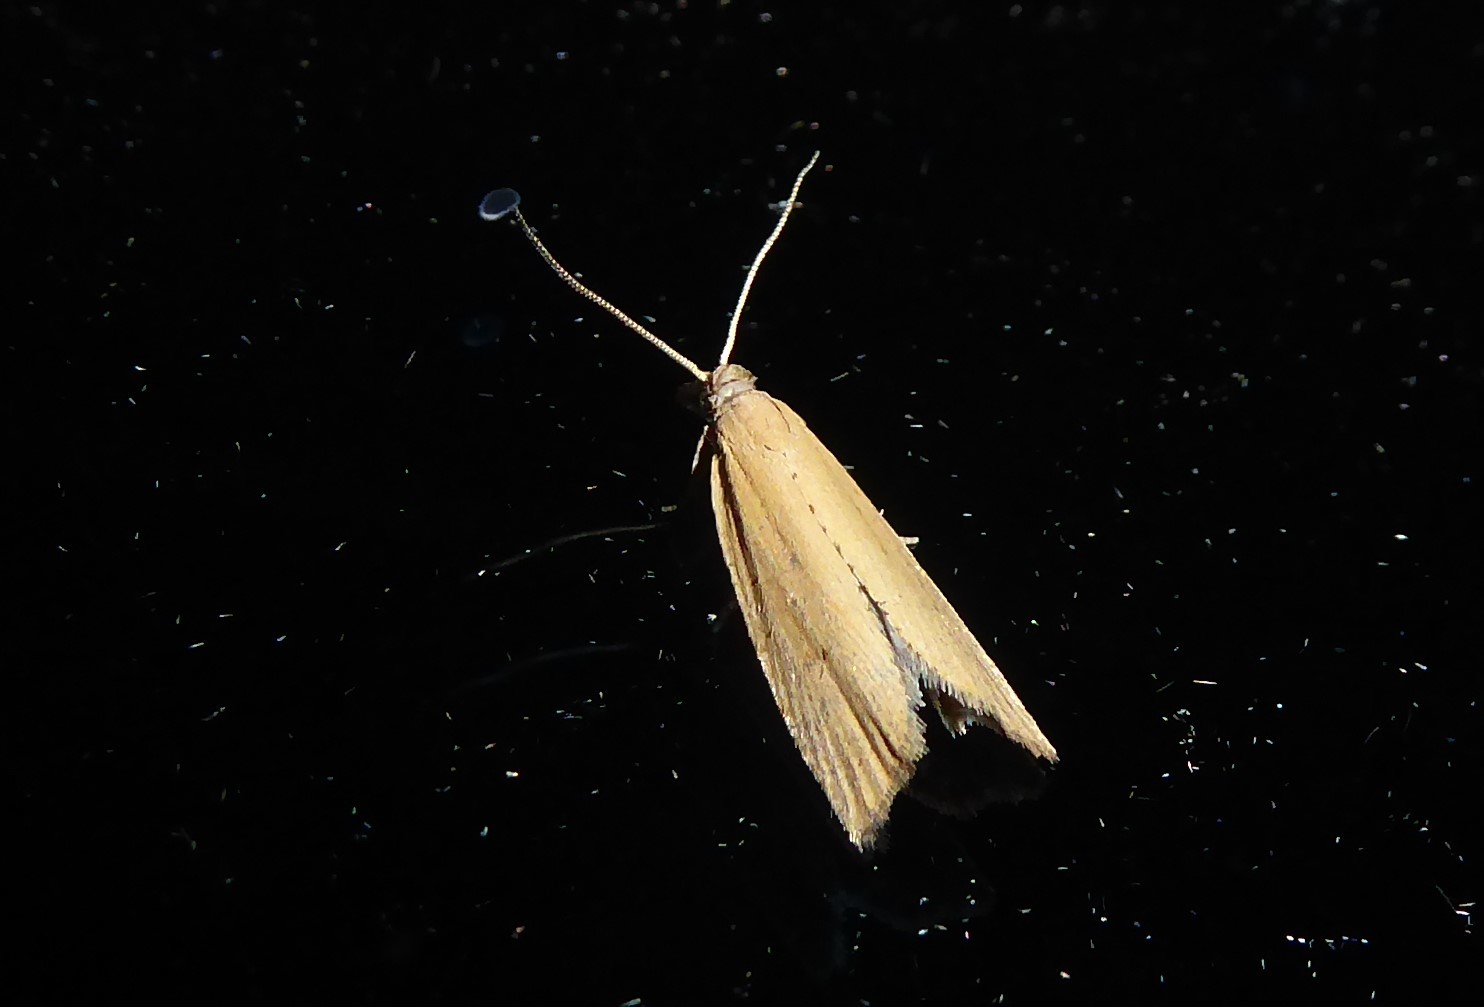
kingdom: Animalia
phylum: Arthropoda
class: Insecta
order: Lepidoptera
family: Tortricidae
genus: Bactra
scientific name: Bactra noteraula
